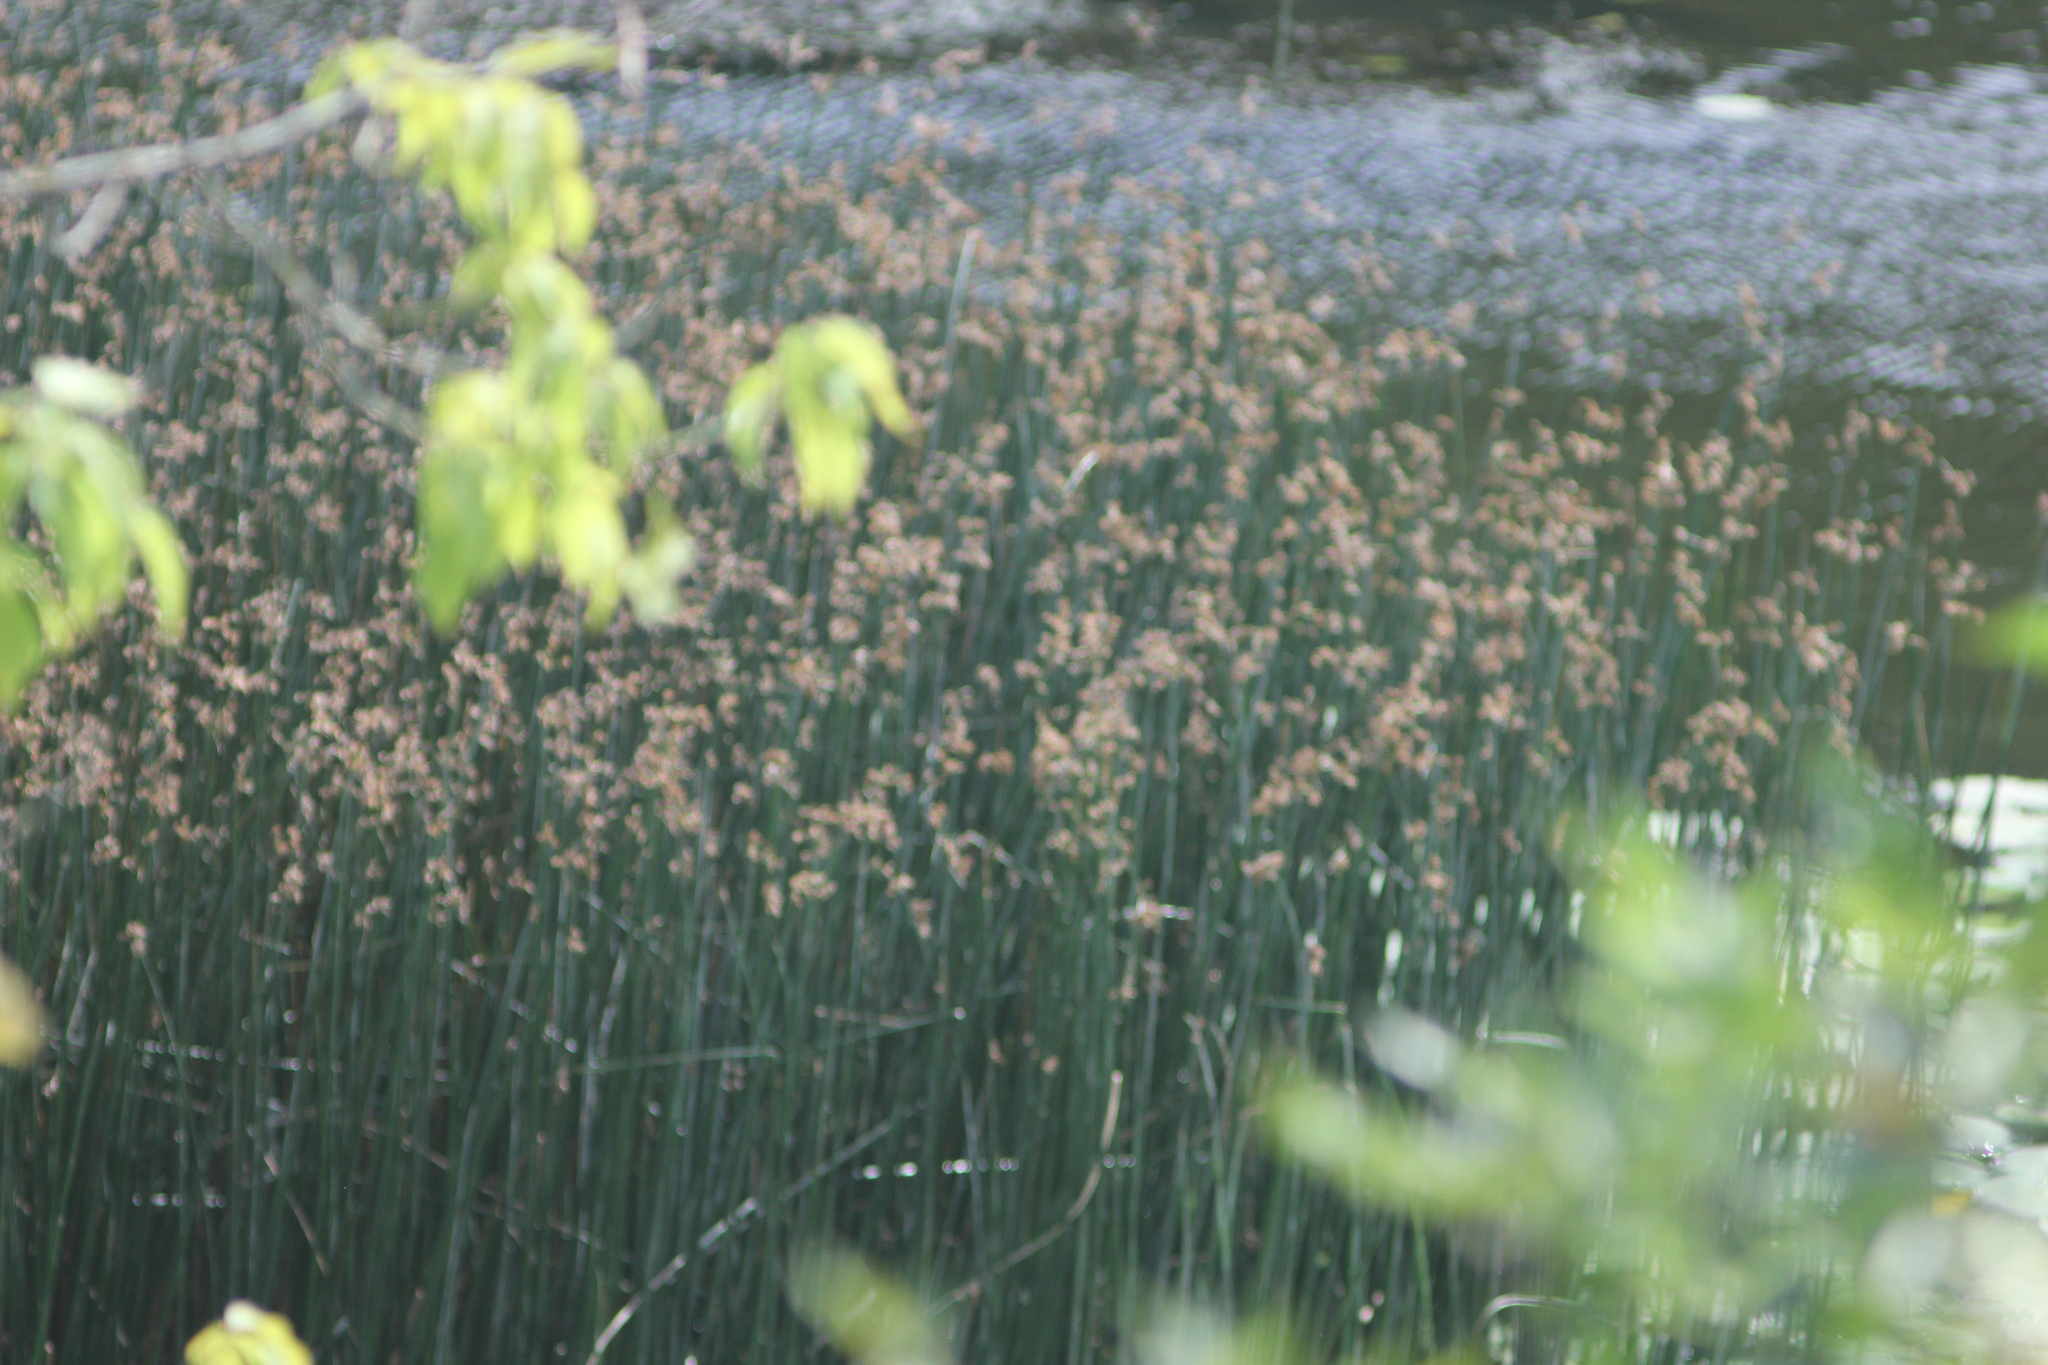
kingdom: Plantae
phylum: Tracheophyta
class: Liliopsida
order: Poales
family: Cyperaceae
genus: Schoenoplectus
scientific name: Schoenoplectus lacustris
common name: Common club-rush
